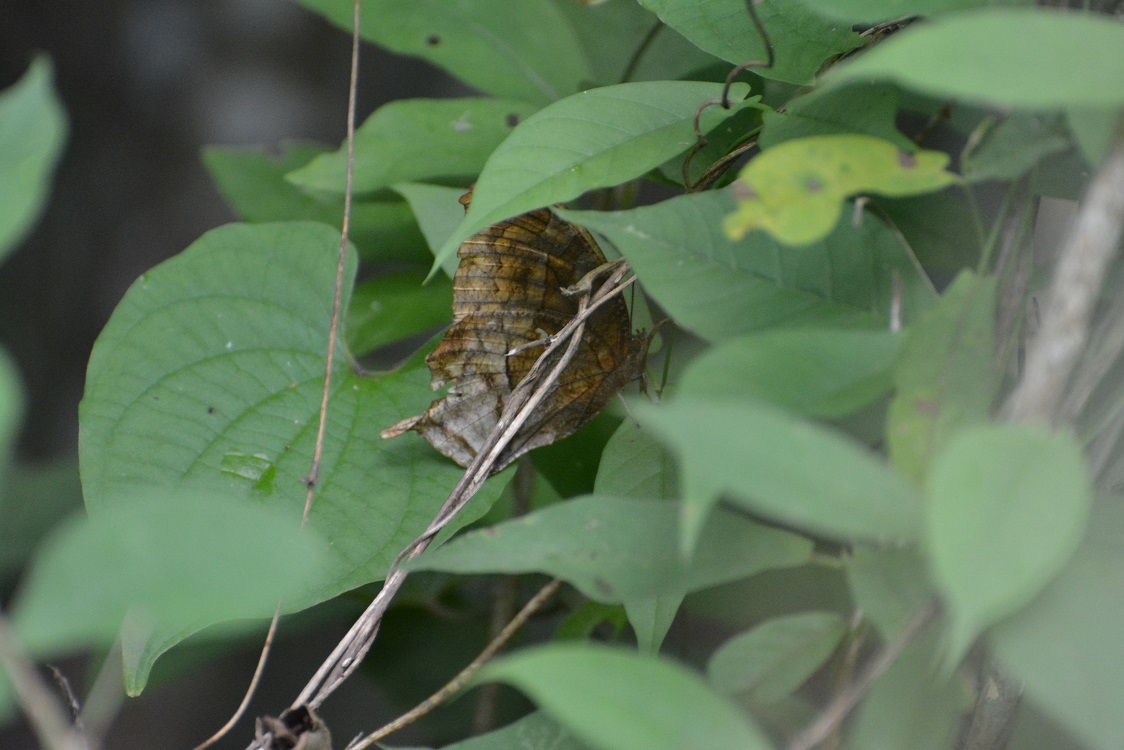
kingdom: Animalia
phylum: Arthropoda
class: Insecta
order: Lepidoptera
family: Nymphalidae
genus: Consul
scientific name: Consul excellens
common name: Black-veined leafwing
